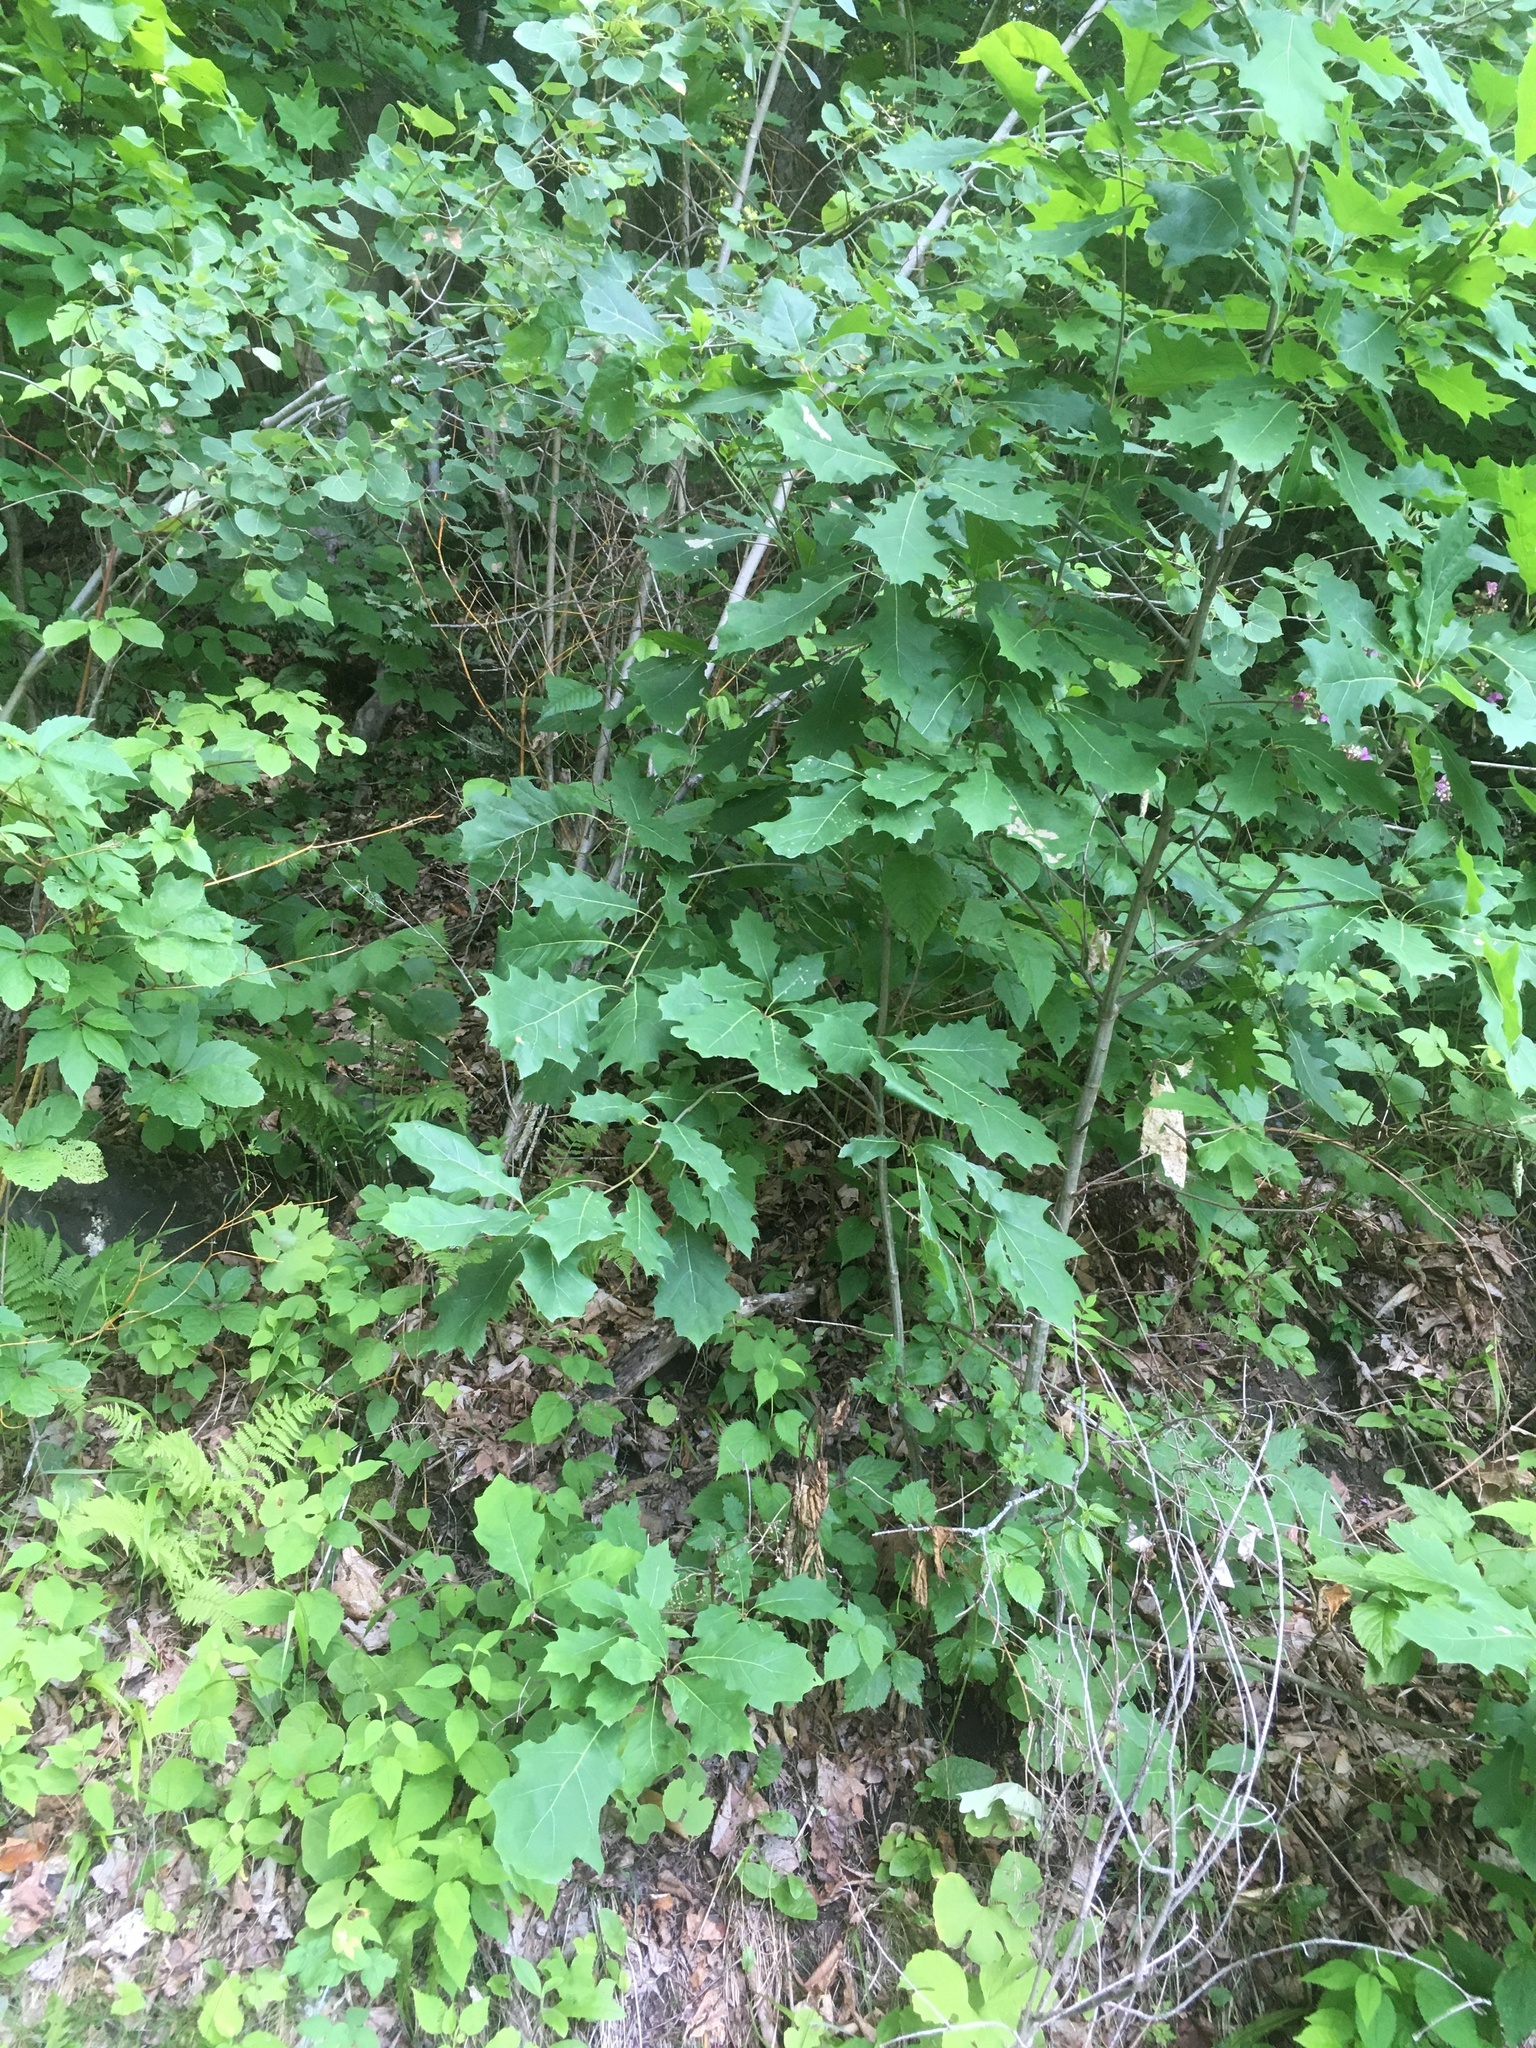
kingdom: Plantae
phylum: Tracheophyta
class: Magnoliopsida
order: Fagales
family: Fagaceae
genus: Quercus
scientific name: Quercus rubra
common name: Red oak
